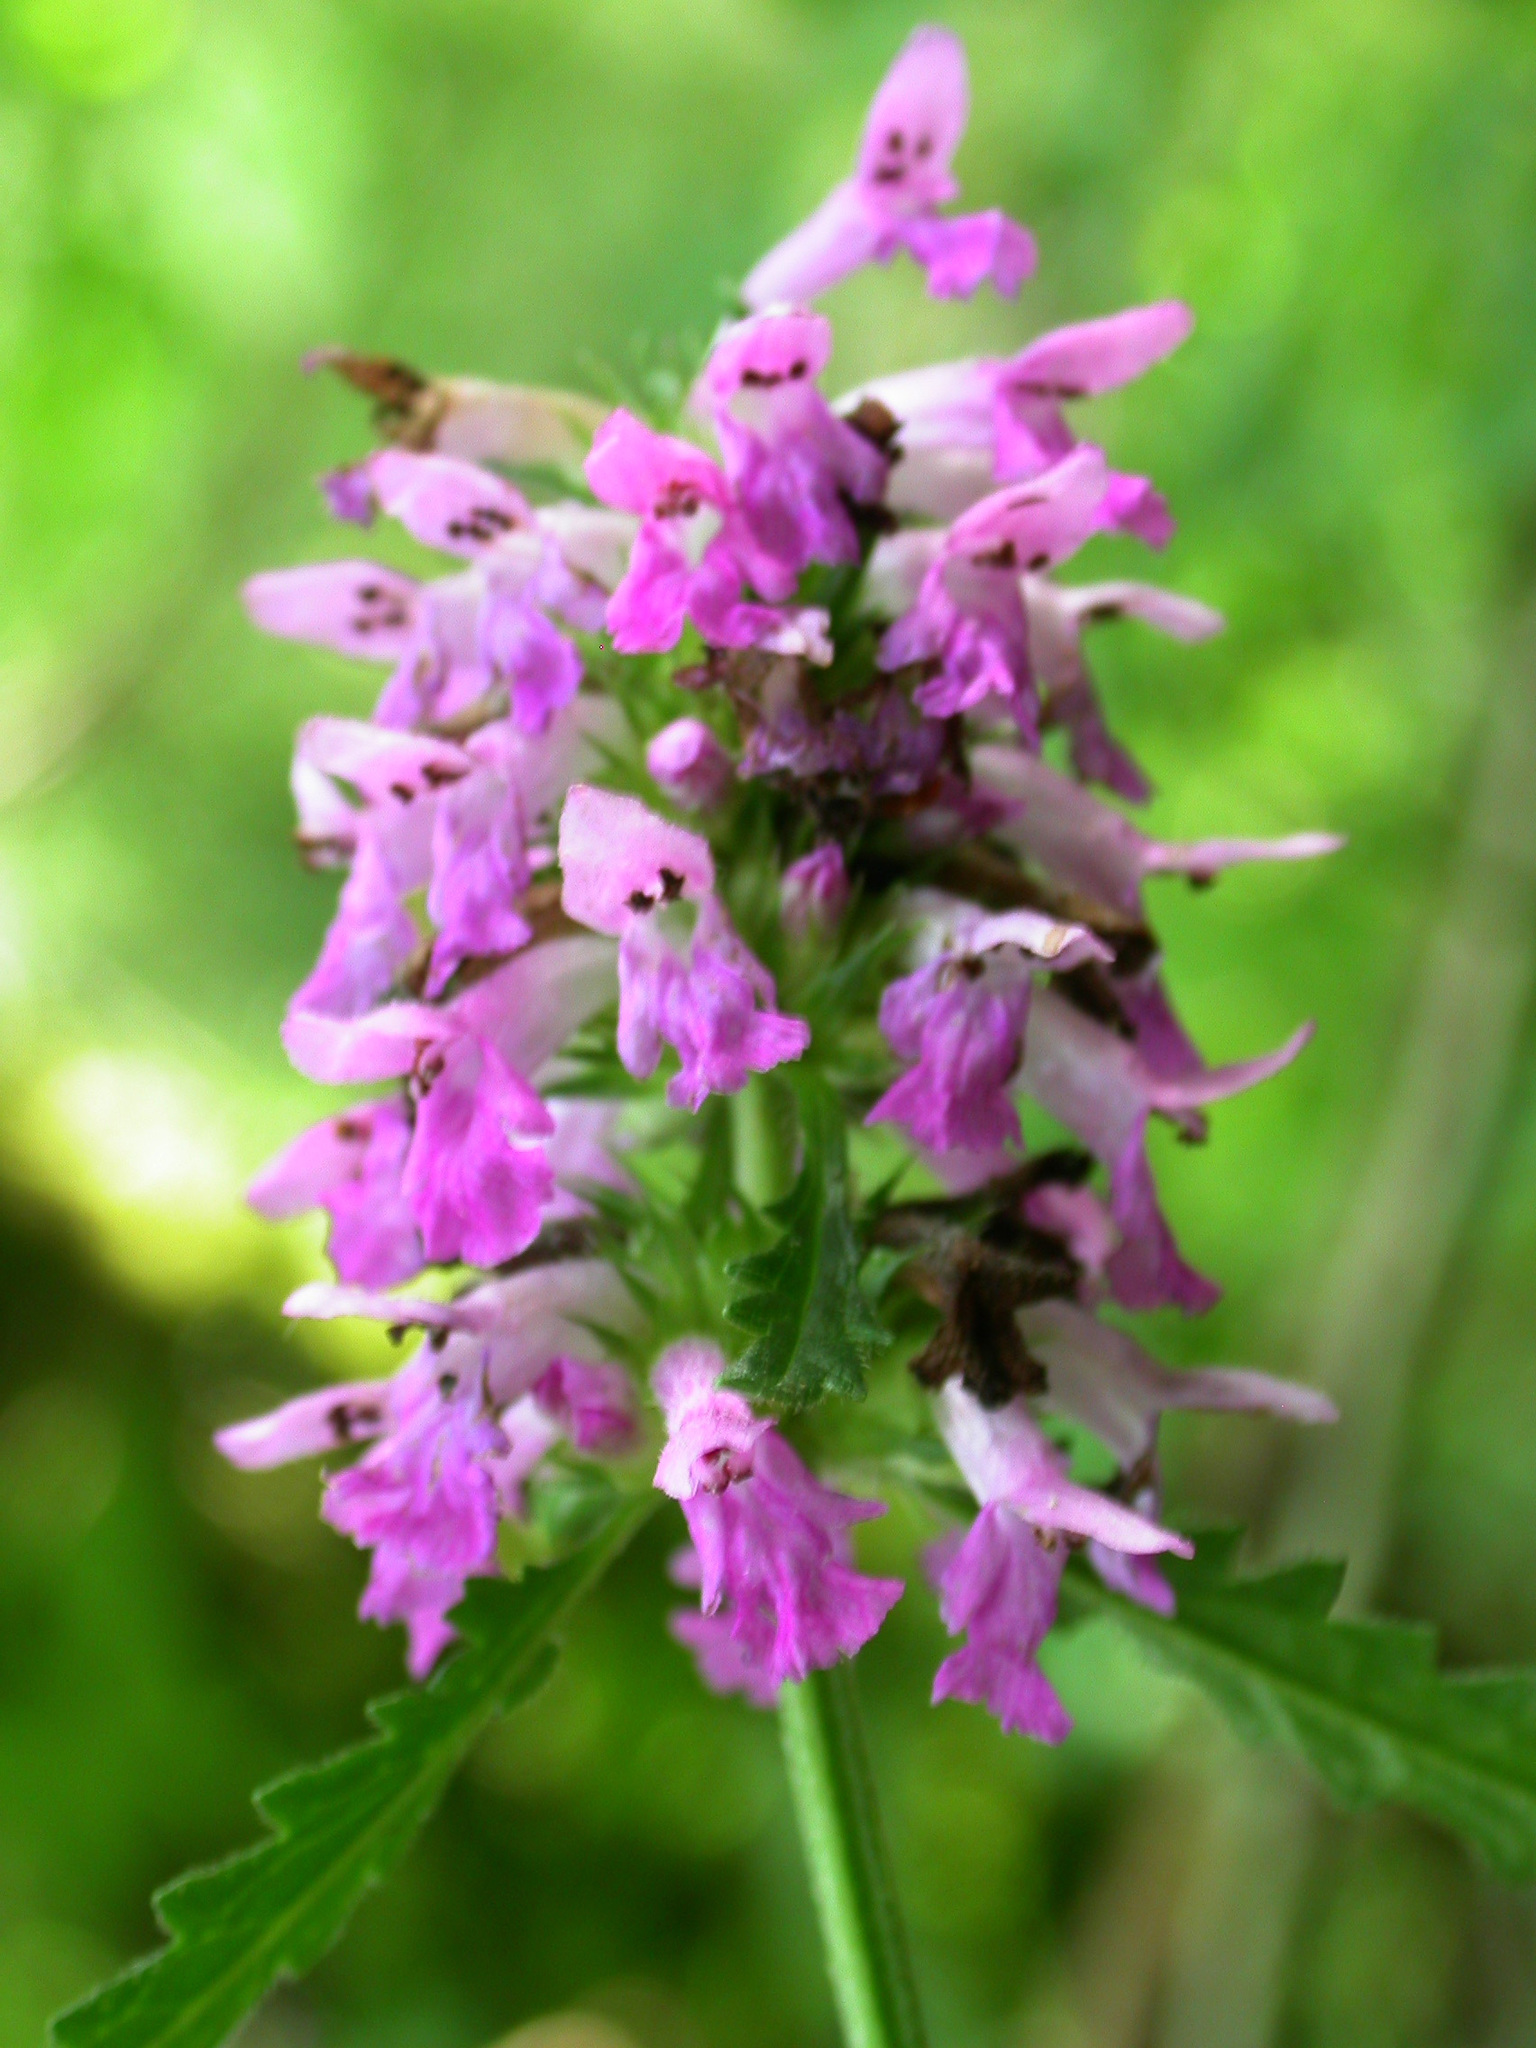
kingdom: Plantae
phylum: Tracheophyta
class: Magnoliopsida
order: Lamiales
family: Lamiaceae
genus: Betonica
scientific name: Betonica officinalis
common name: Bishop's-wort
